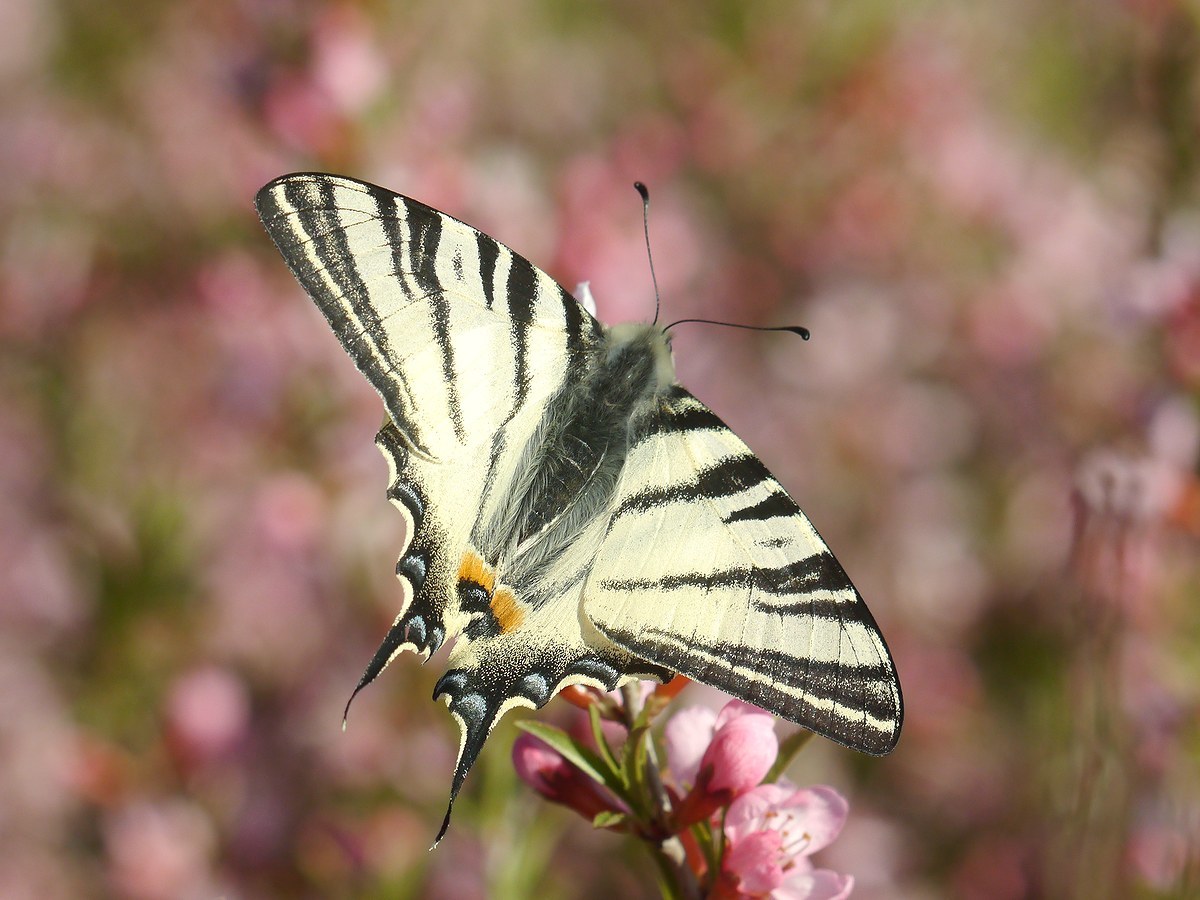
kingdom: Animalia
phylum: Arthropoda
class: Insecta
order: Lepidoptera
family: Papilionidae
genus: Iphiclides
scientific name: Iphiclides podalirius
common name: Scarce swallowtail
